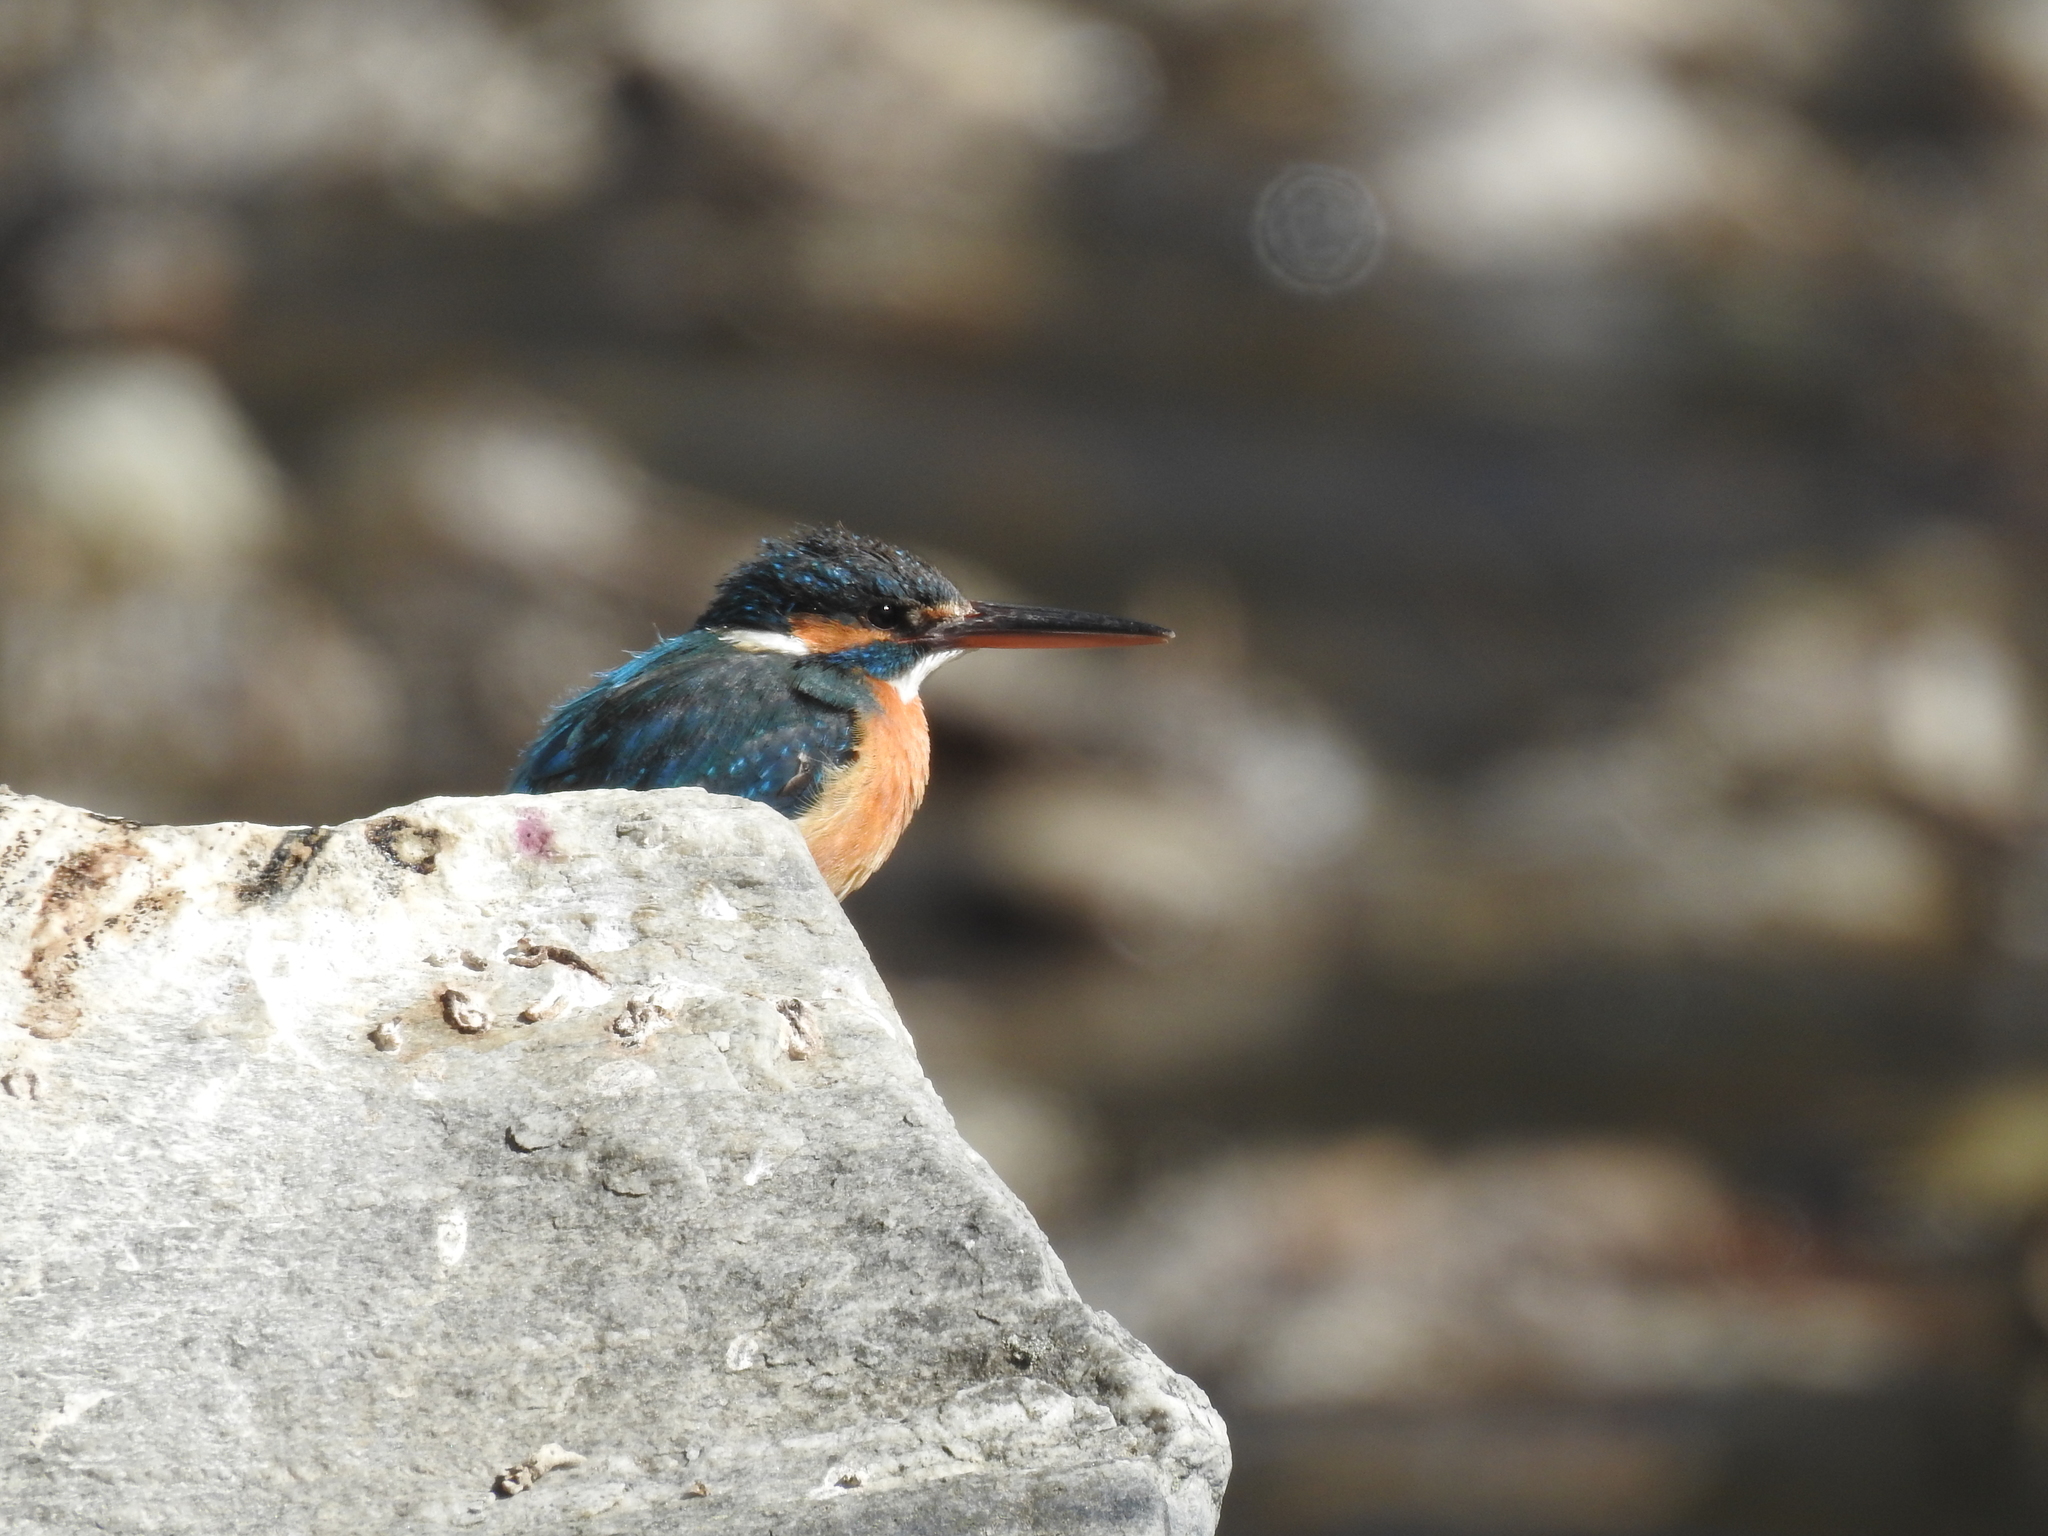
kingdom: Animalia
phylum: Chordata
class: Aves
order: Coraciiformes
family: Alcedinidae
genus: Alcedo
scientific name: Alcedo atthis
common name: Common kingfisher
